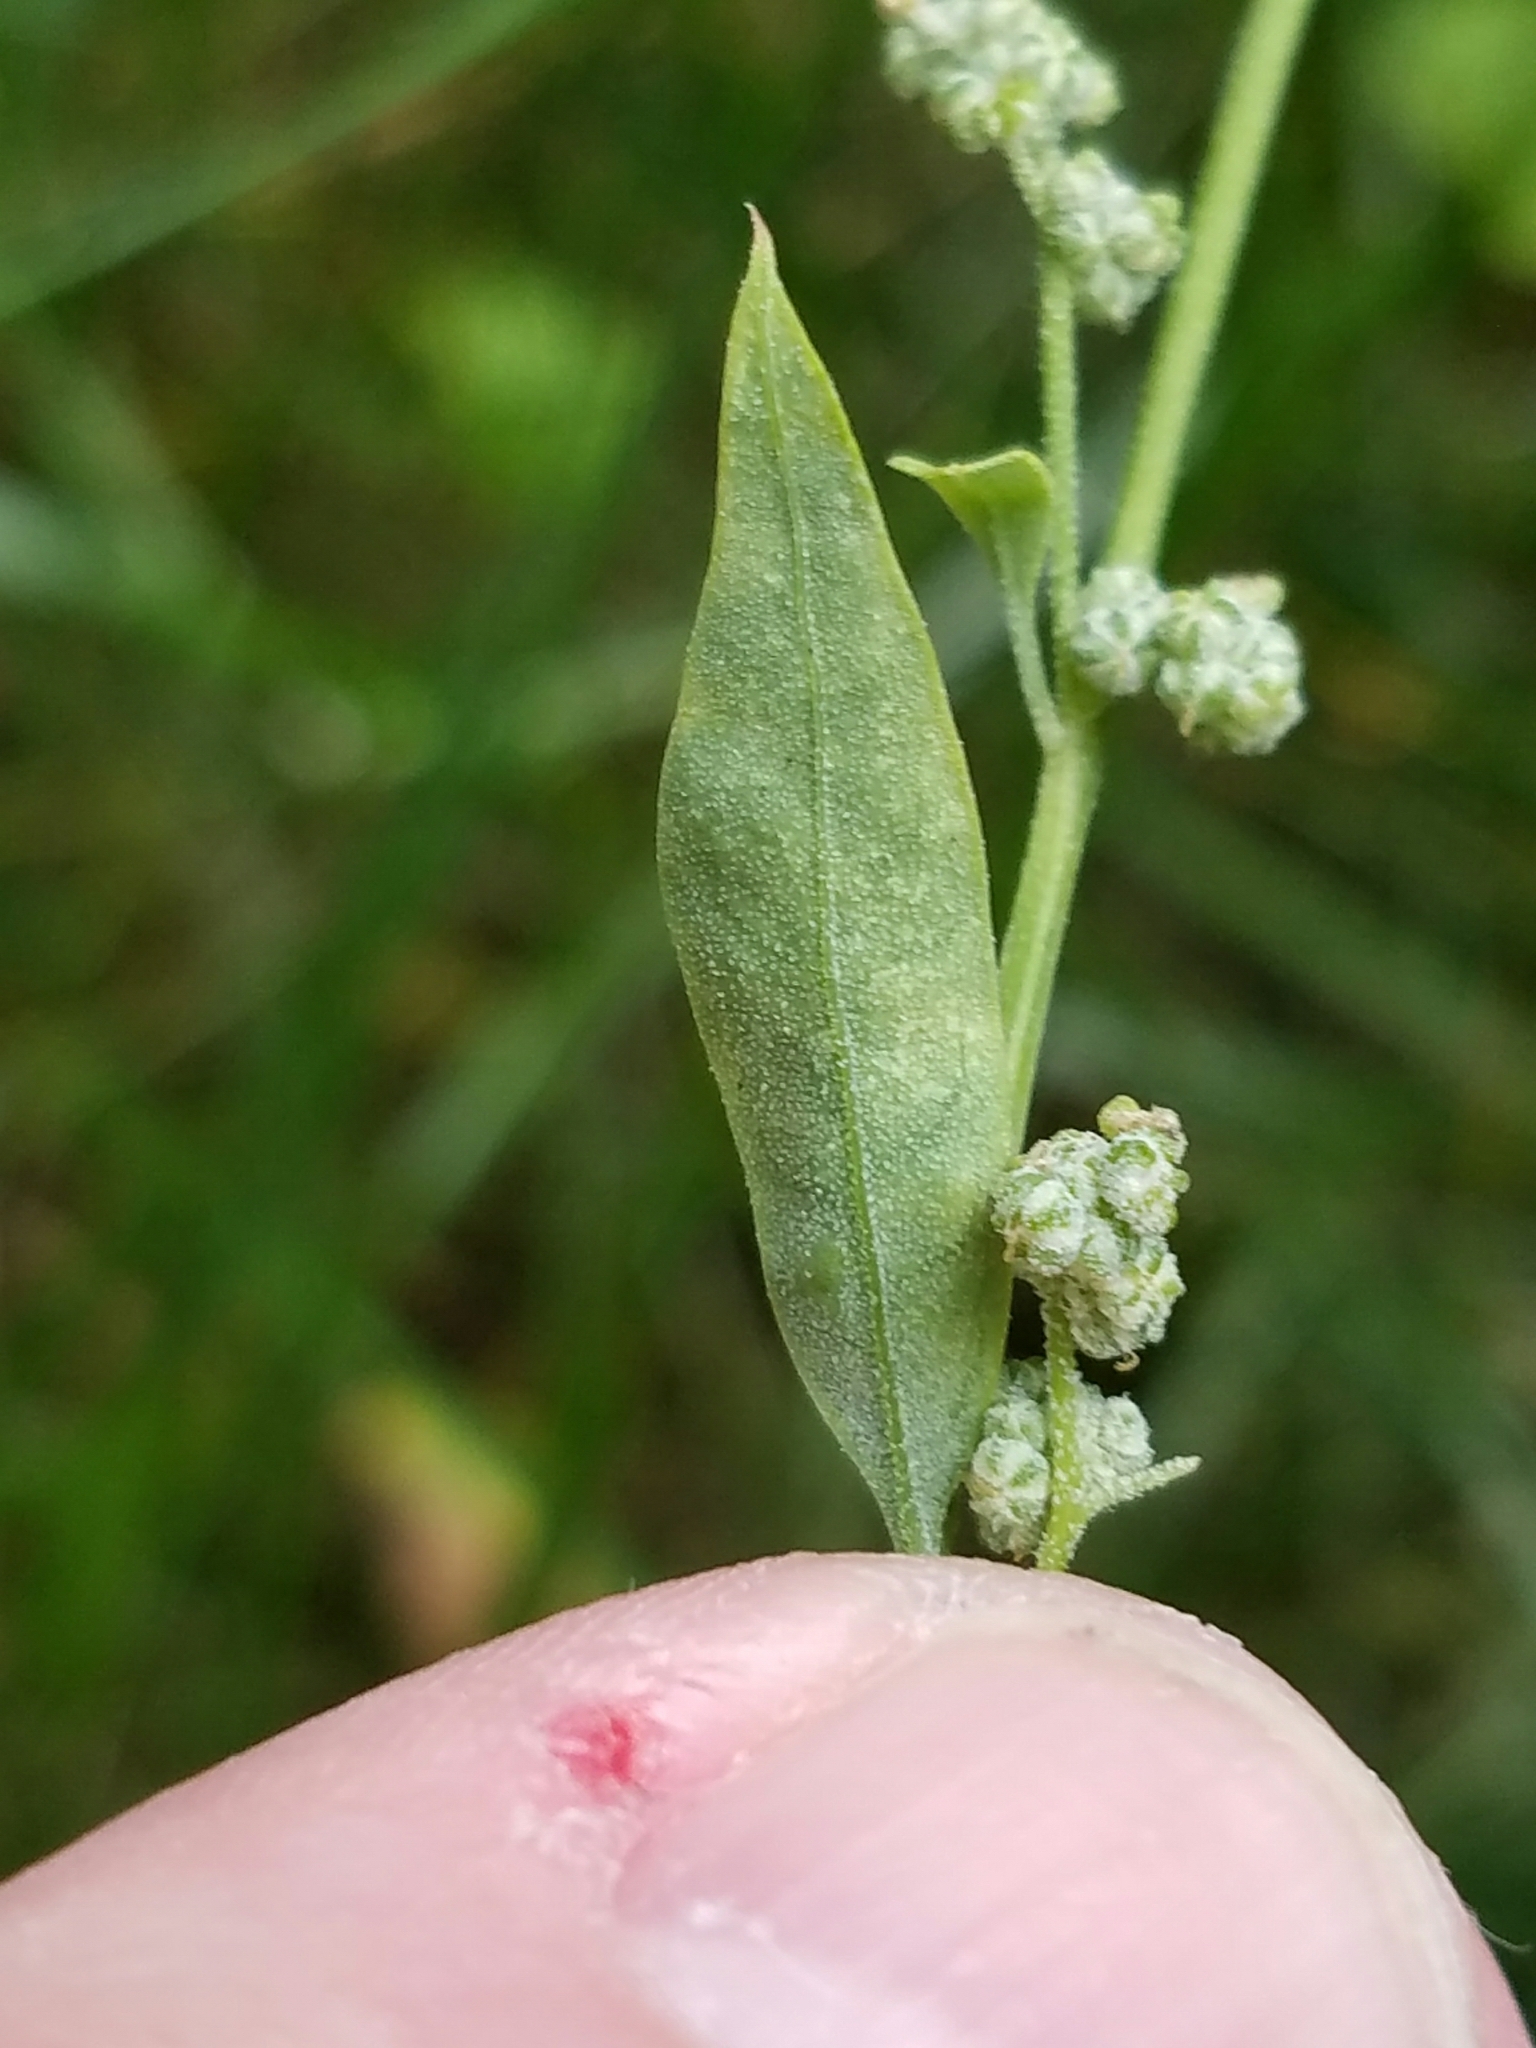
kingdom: Plantae
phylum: Tracheophyta
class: Magnoliopsida
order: Caryophyllales
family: Amaranthaceae
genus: Chenopodium
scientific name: Chenopodium album
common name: Fat-hen
